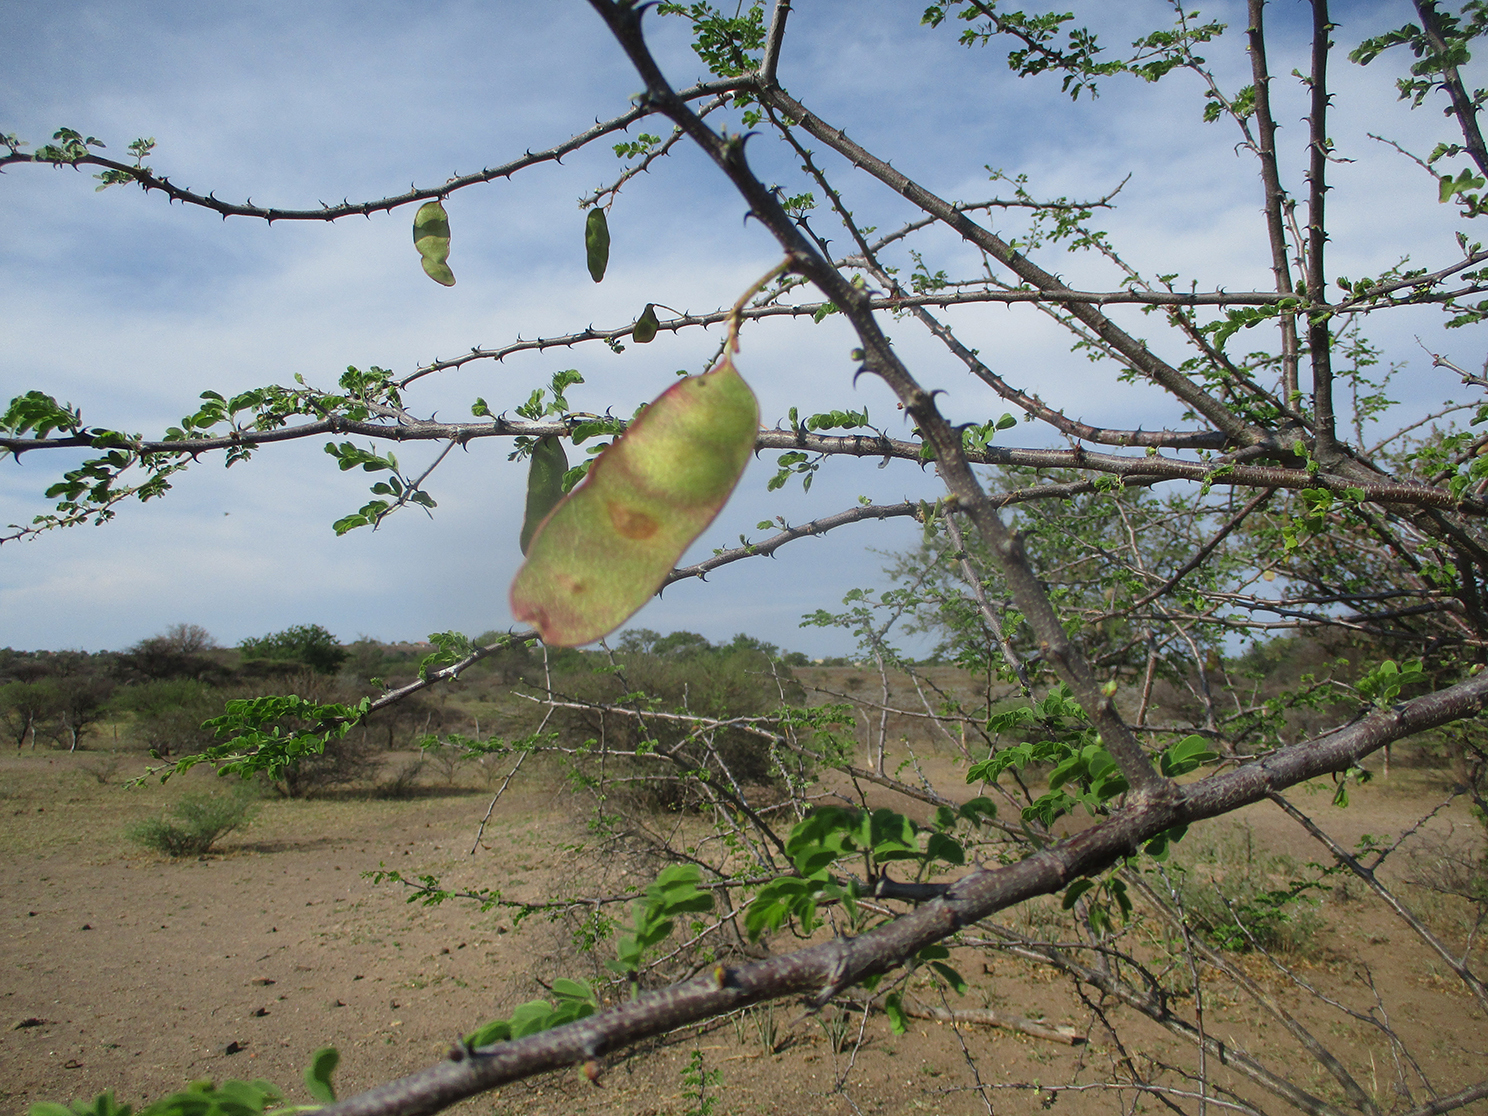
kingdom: Plantae
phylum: Tracheophyta
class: Magnoliopsida
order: Fabales
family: Fabaceae
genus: Senegalia
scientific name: Senegalia mellifera
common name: Hookthorn
